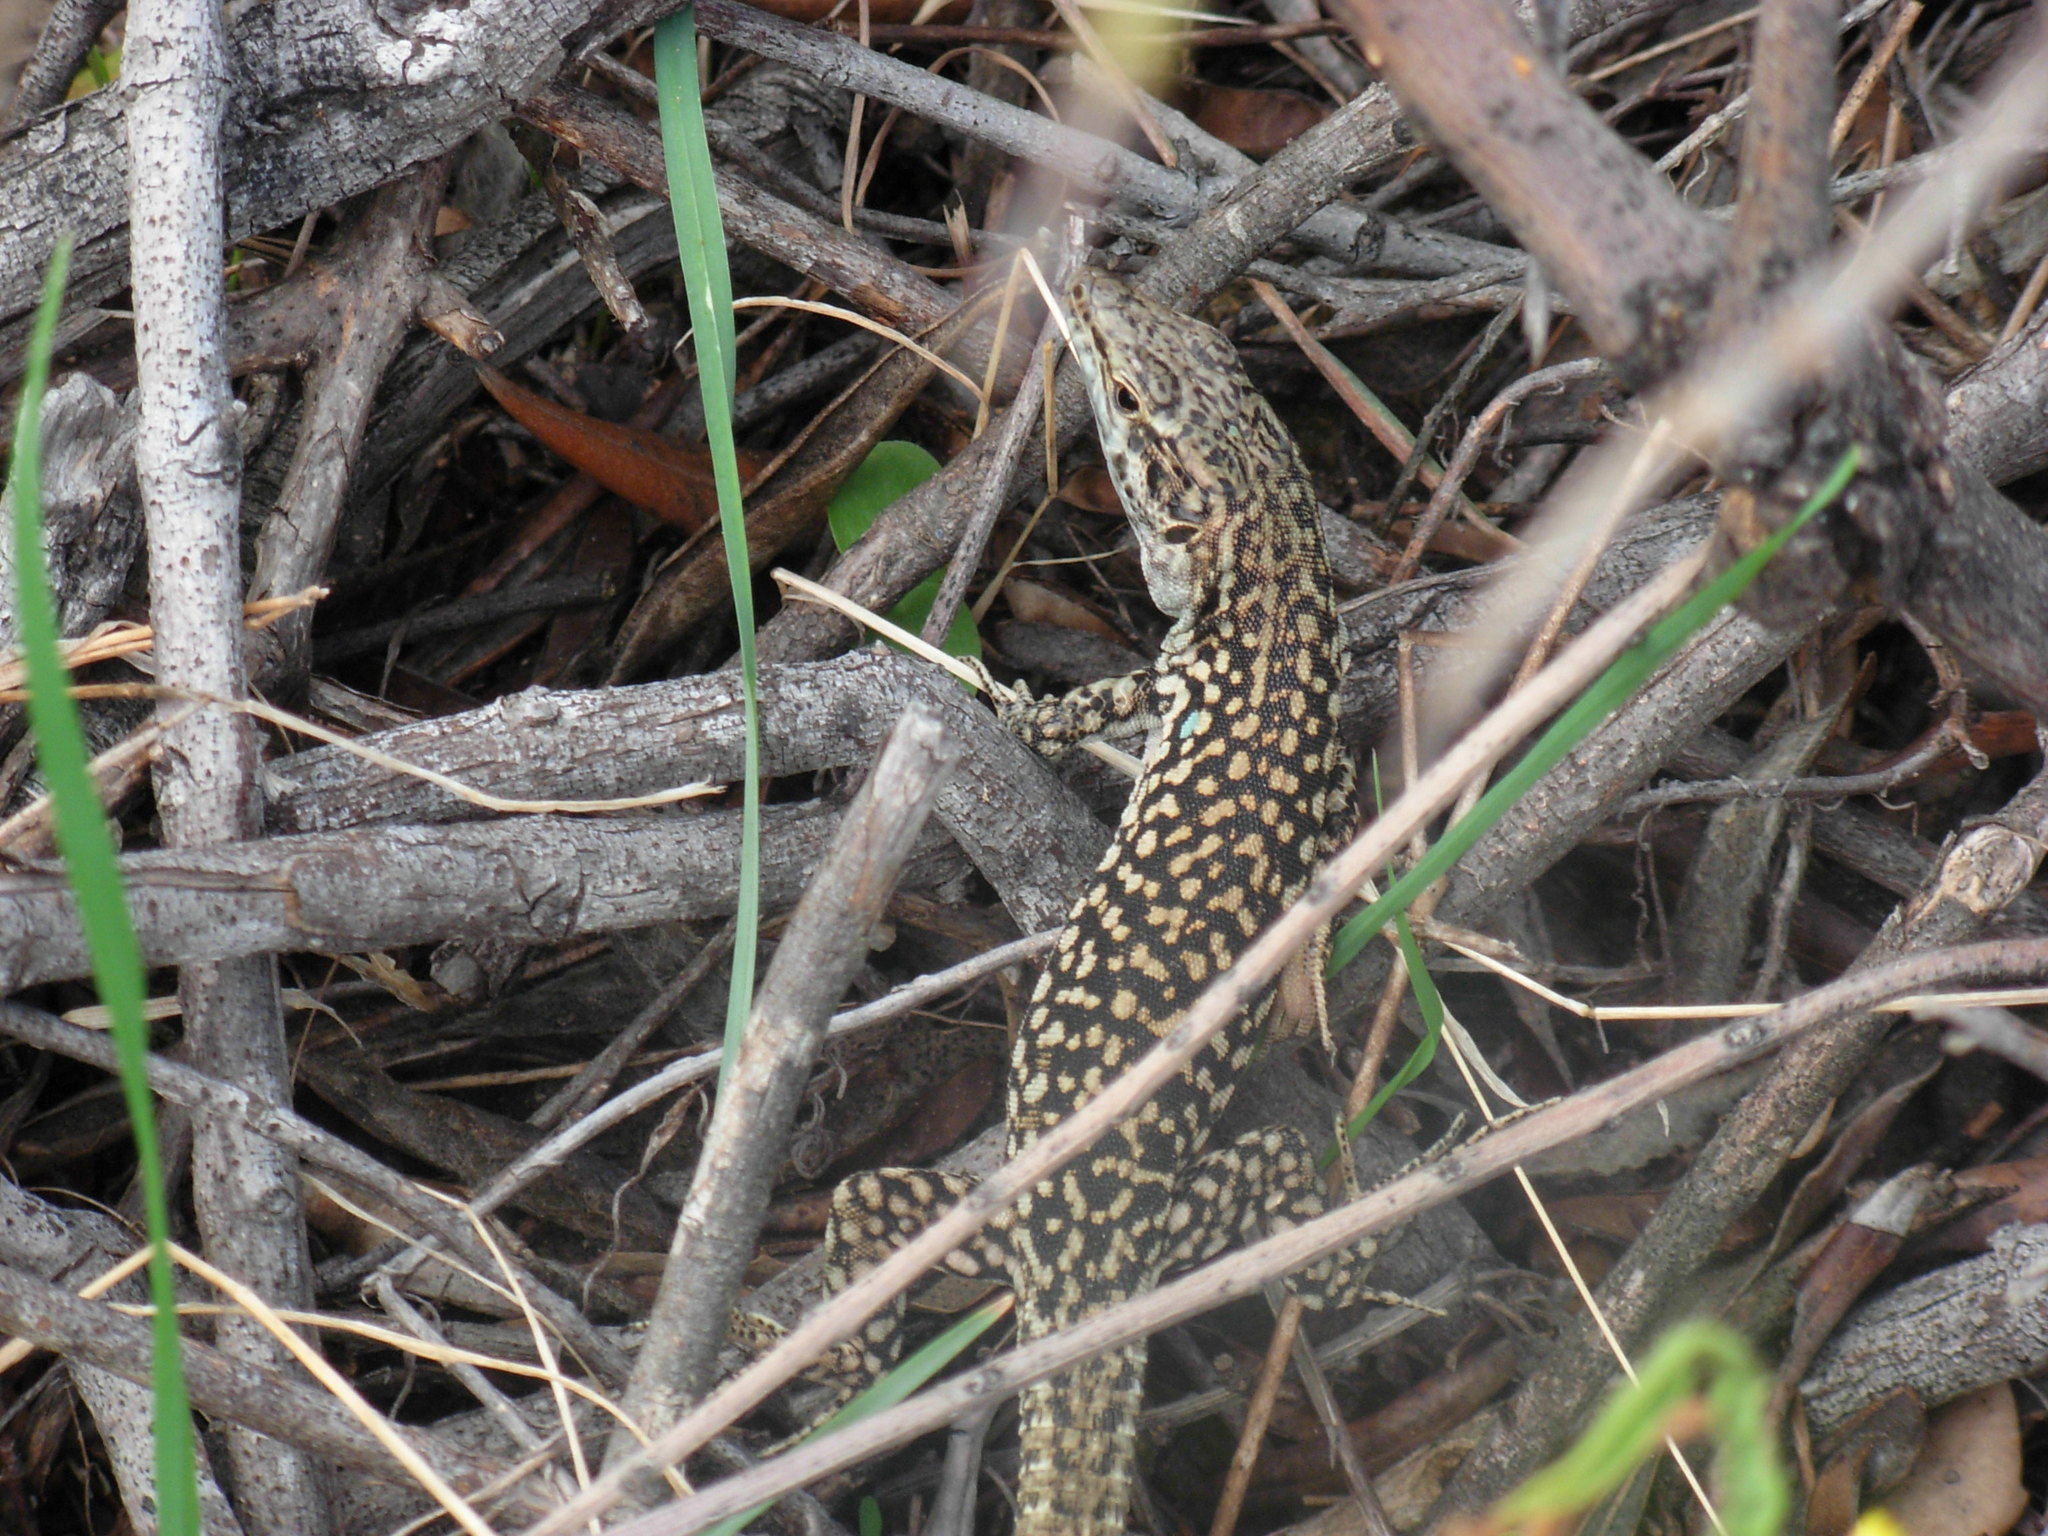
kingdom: Animalia
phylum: Chordata
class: Squamata
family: Lacertidae
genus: Podarcis
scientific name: Podarcis siculus
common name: Italian wall lizard
